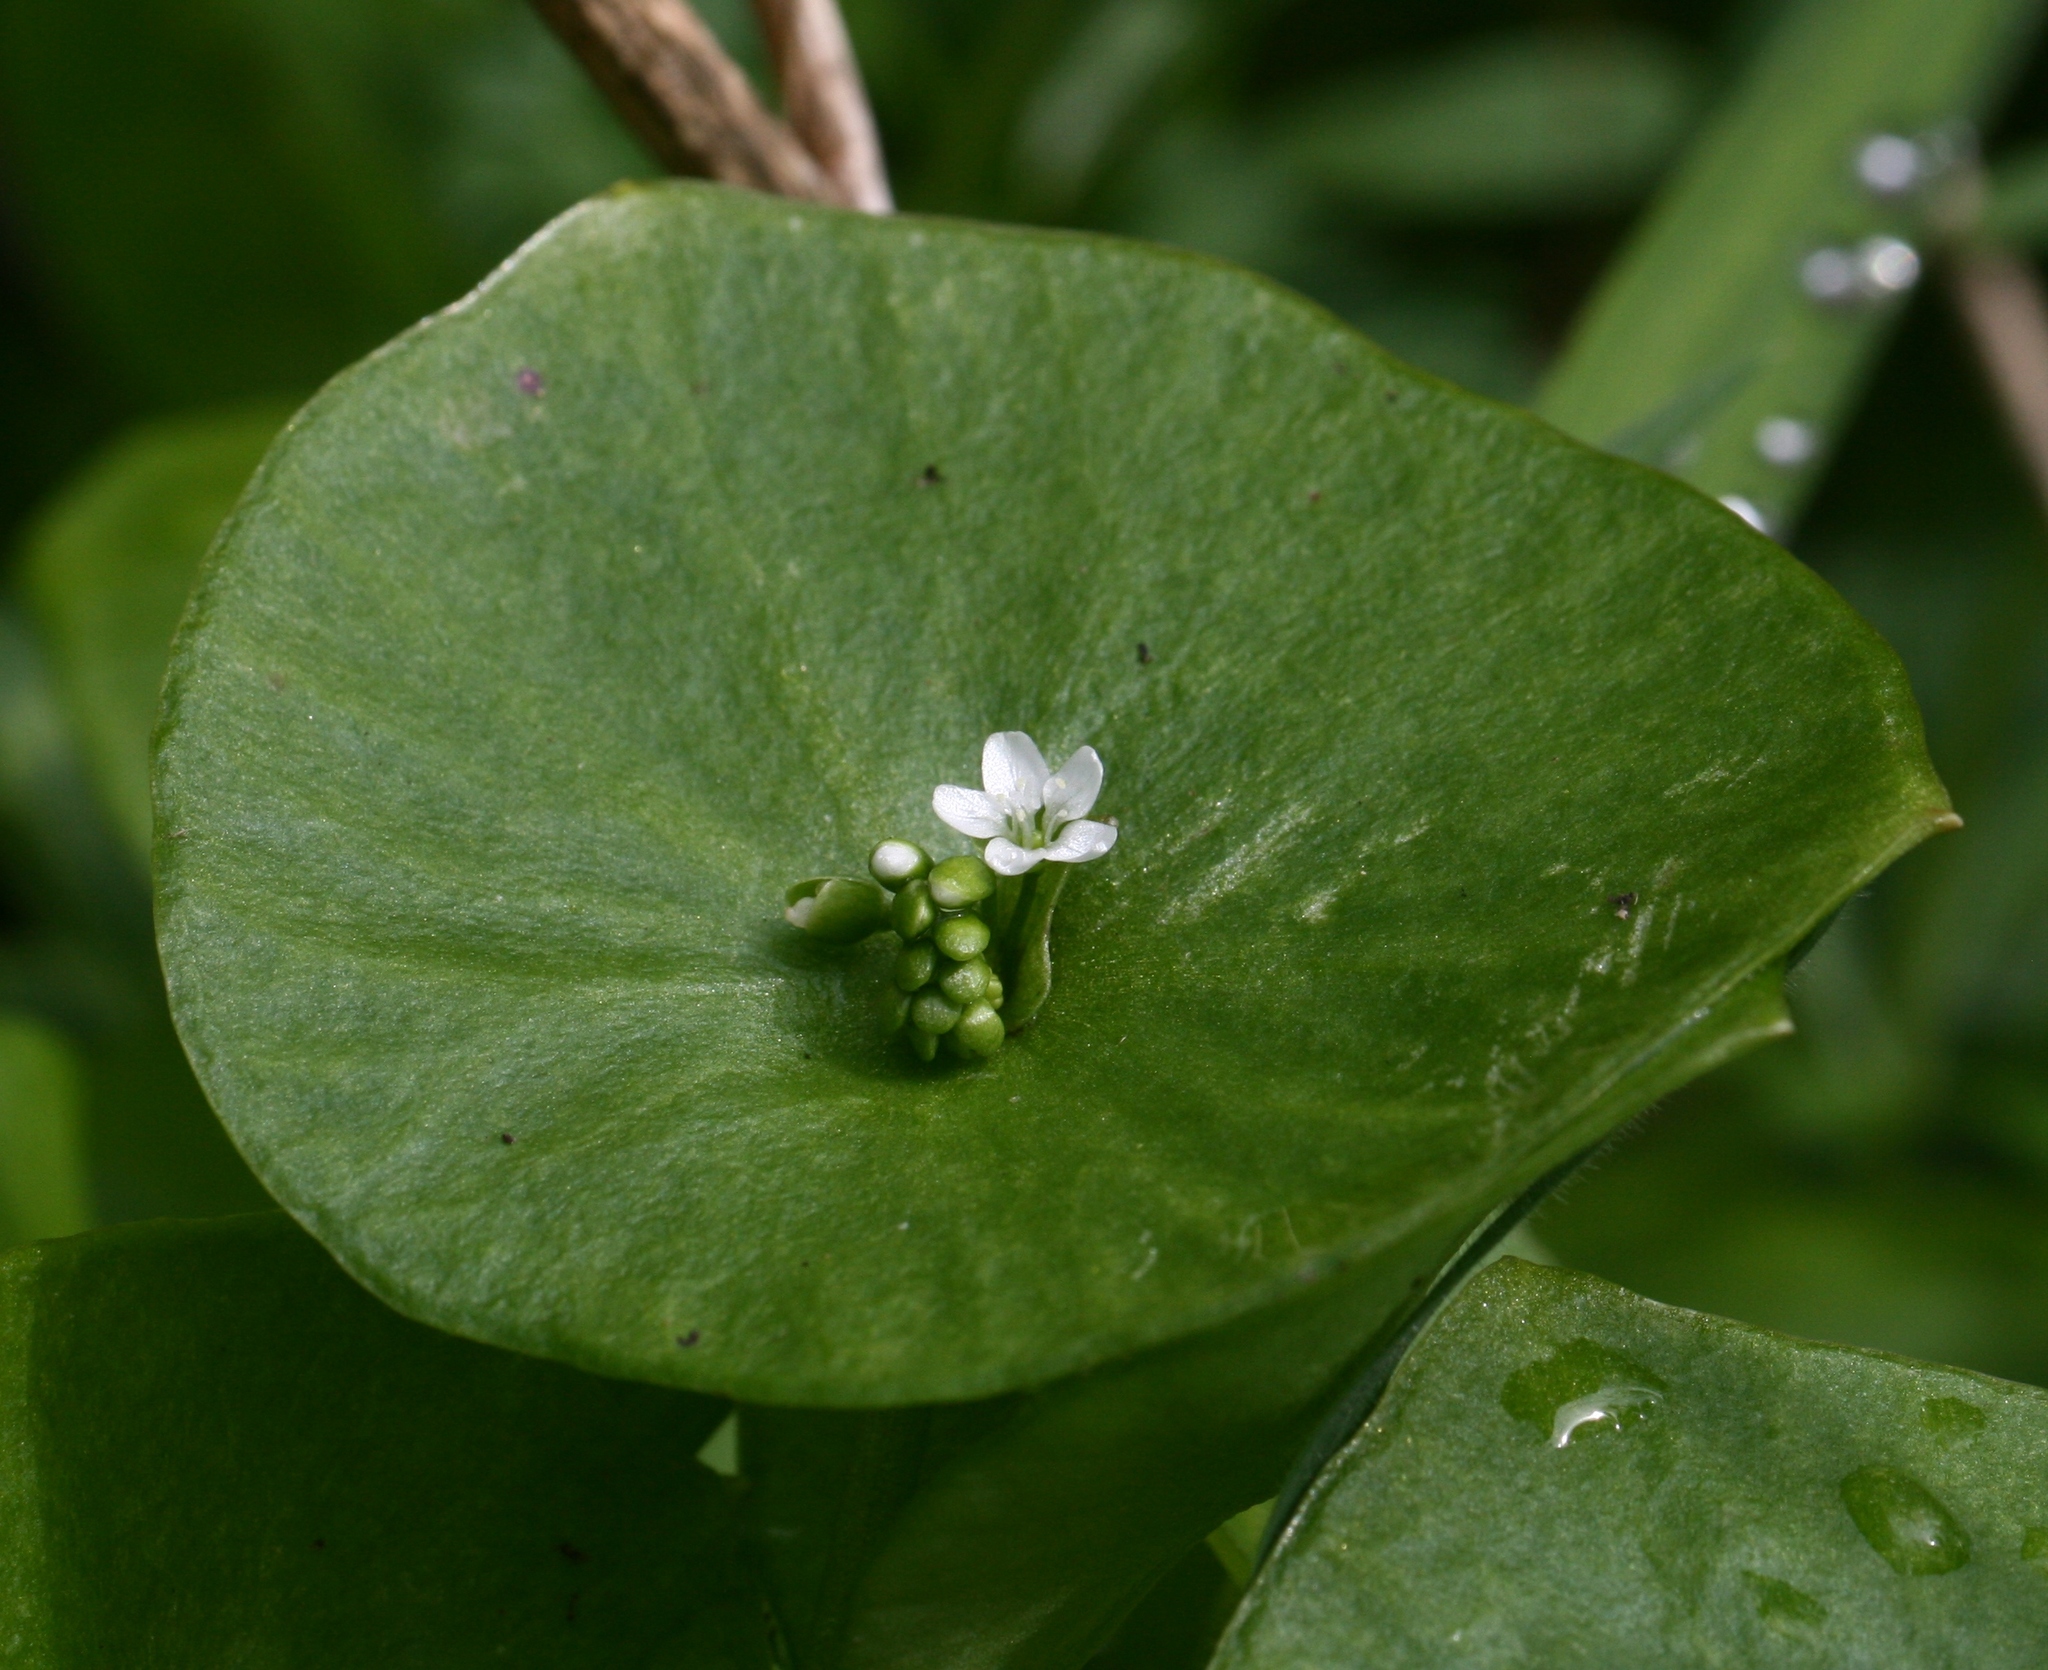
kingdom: Plantae
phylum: Tracheophyta
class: Magnoliopsida
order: Caryophyllales
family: Montiaceae
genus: Claytonia
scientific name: Claytonia perfoliata
